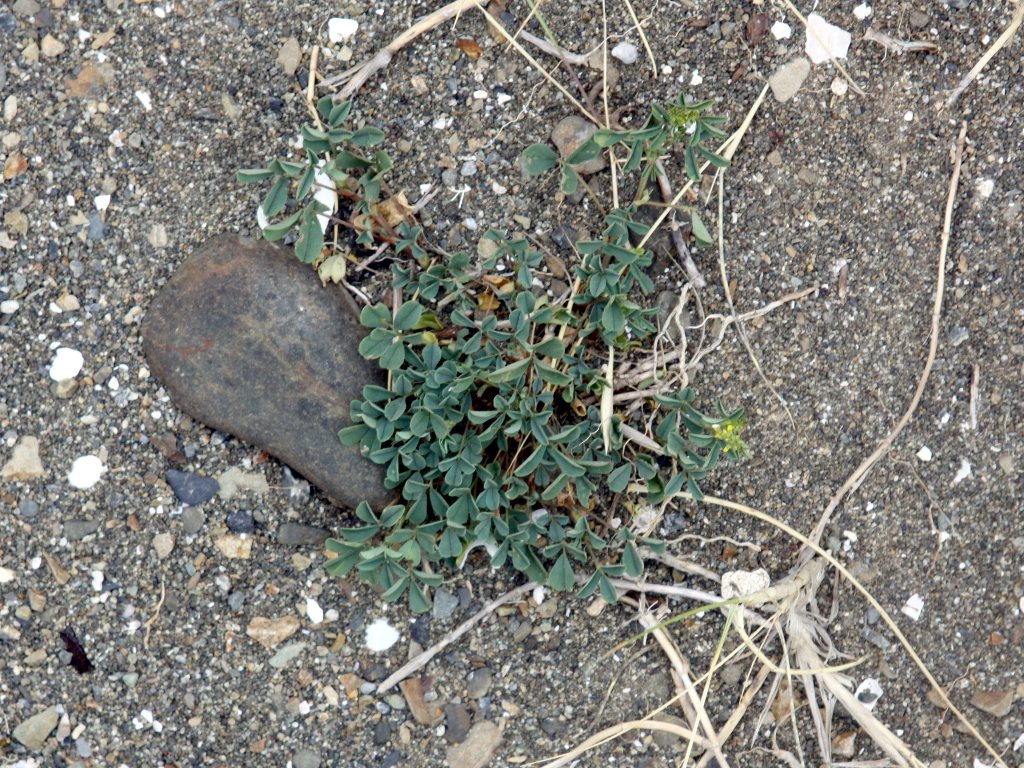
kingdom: Plantae
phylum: Tracheophyta
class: Magnoliopsida
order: Fabales
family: Fabaceae
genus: Melilotus
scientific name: Melilotus indicus
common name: Small melilot
